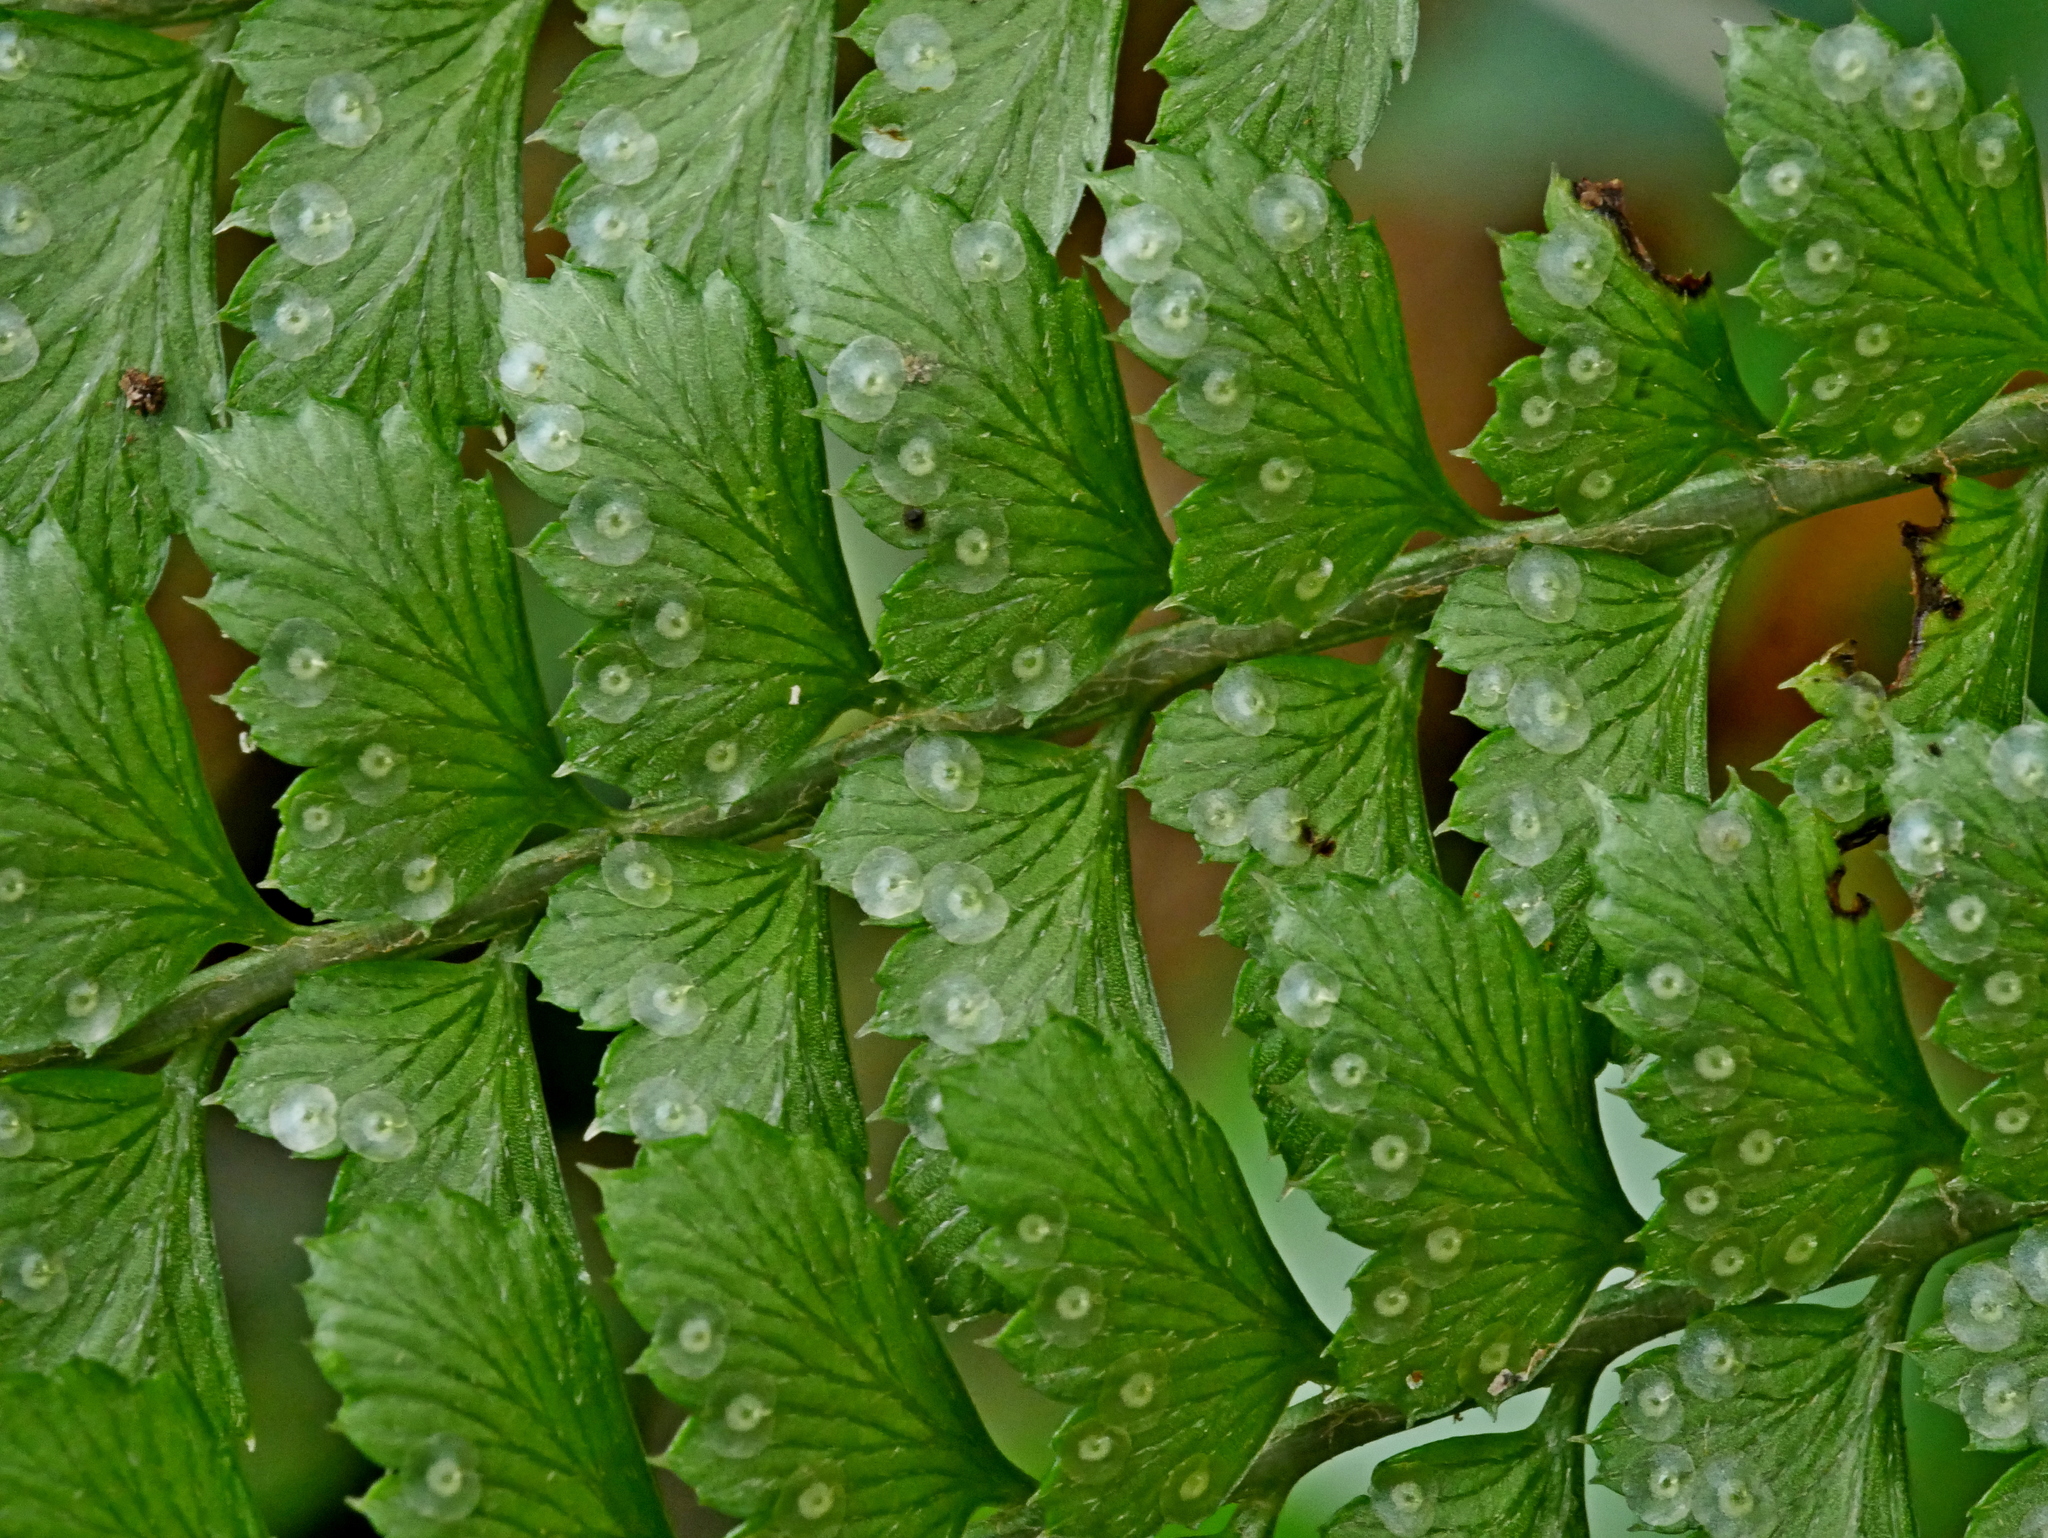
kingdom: Plantae
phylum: Tracheophyta
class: Polypodiopsida
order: Polypodiales
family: Dryopteridaceae
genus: Arachniodes
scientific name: Arachniodes amabilis
